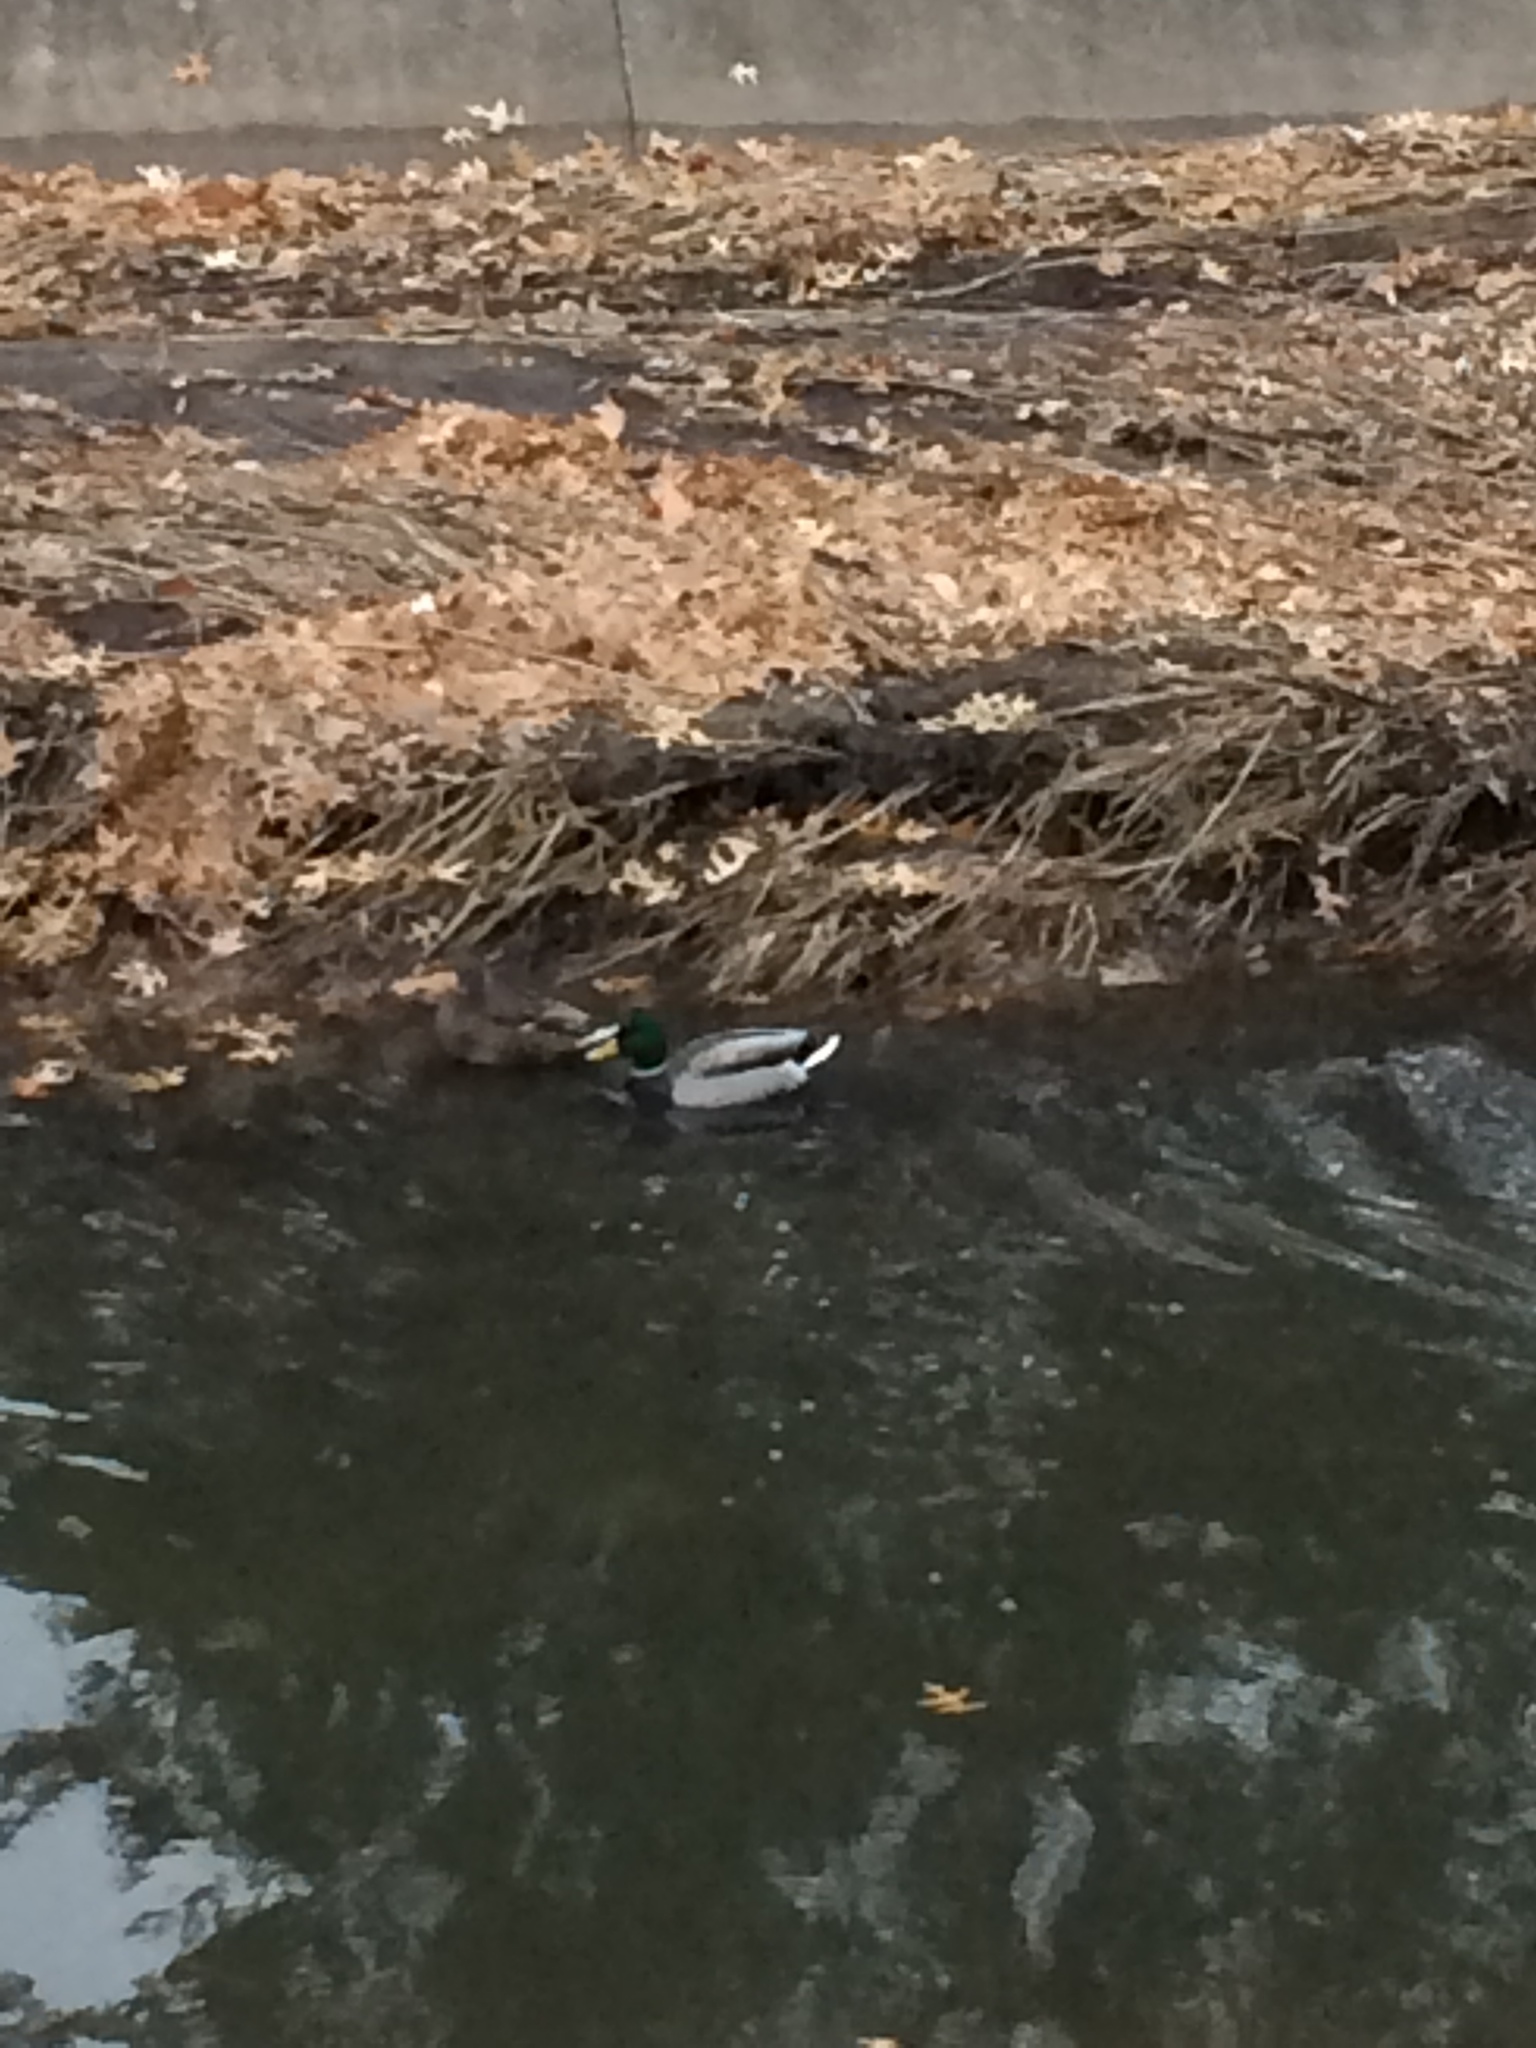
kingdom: Animalia
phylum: Chordata
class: Aves
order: Anseriformes
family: Anatidae
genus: Anas
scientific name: Anas platyrhynchos
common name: Mallard
